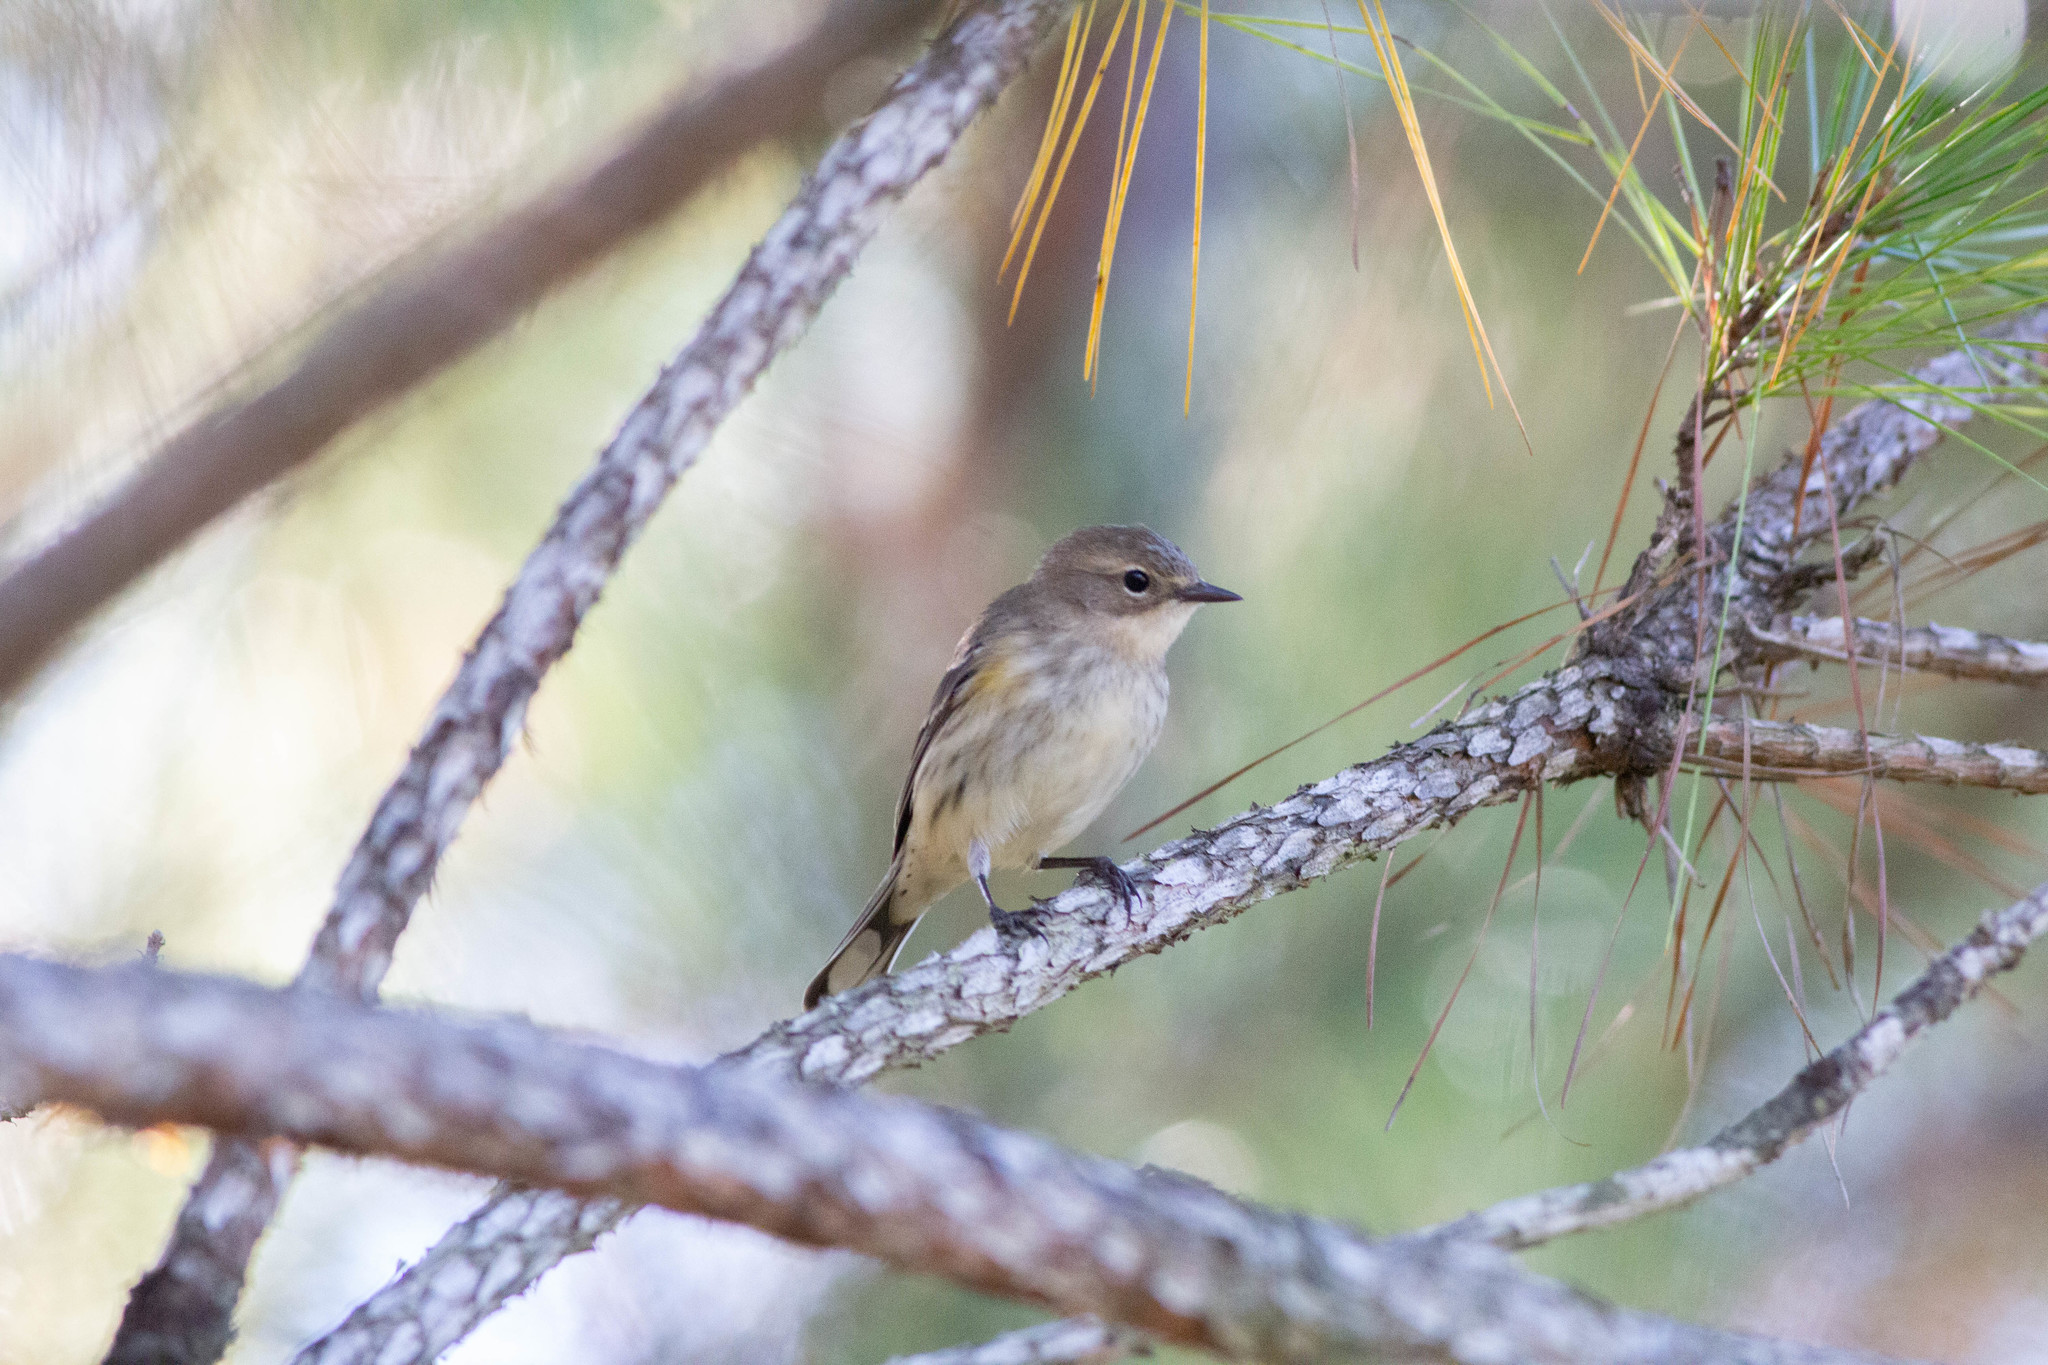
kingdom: Animalia
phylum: Chordata
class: Aves
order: Passeriformes
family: Parulidae
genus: Setophaga
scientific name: Setophaga coronata
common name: Myrtle warbler
